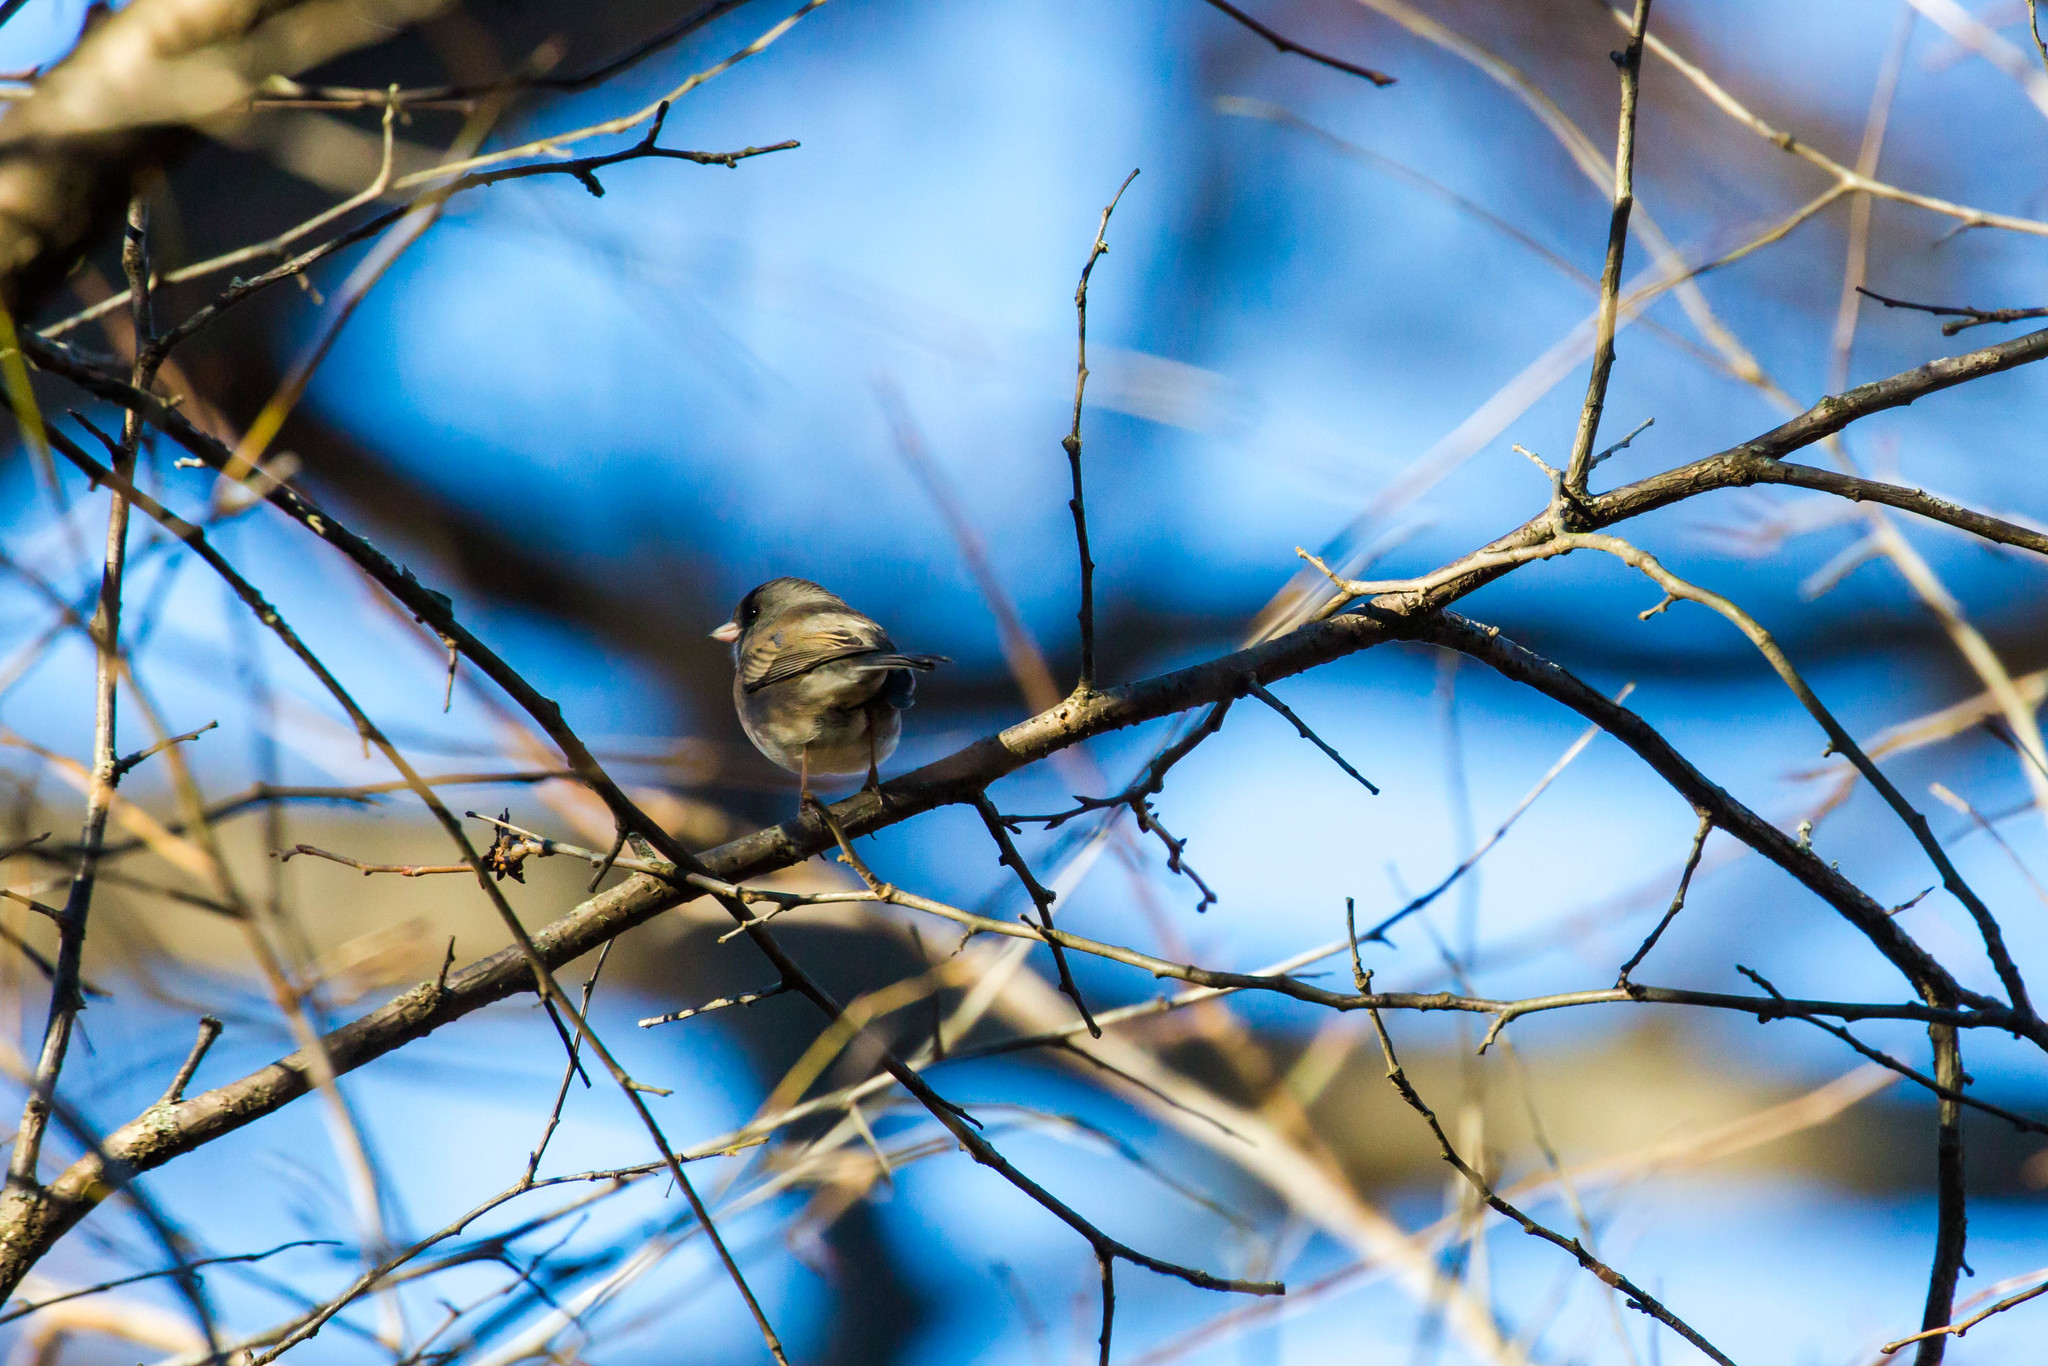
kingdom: Animalia
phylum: Chordata
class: Aves
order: Passeriformes
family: Passerellidae
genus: Junco
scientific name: Junco hyemalis
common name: Dark-eyed junco
